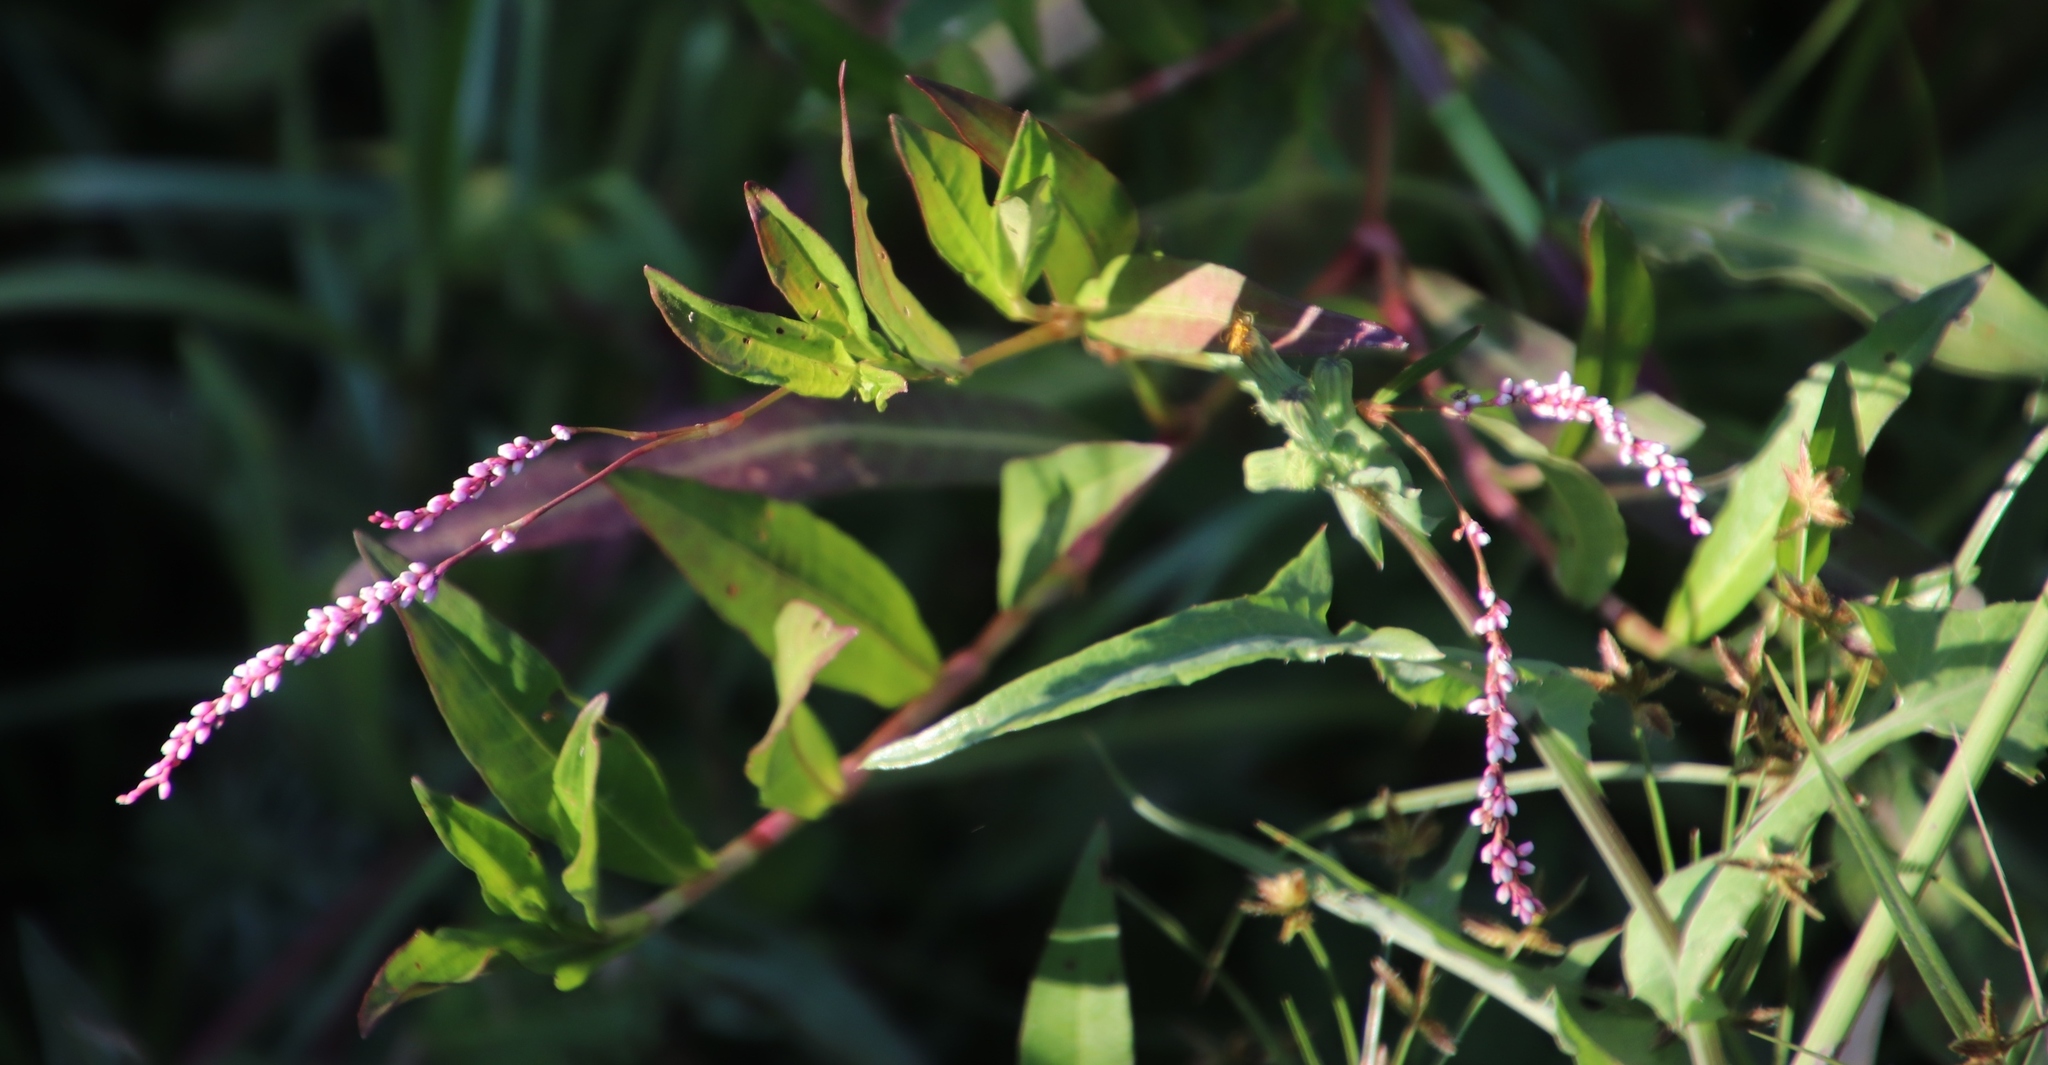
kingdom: Plantae
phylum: Tracheophyta
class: Magnoliopsida
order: Caryophyllales
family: Polygonaceae
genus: Persicaria
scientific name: Persicaria decipiens
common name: Willow-weed
